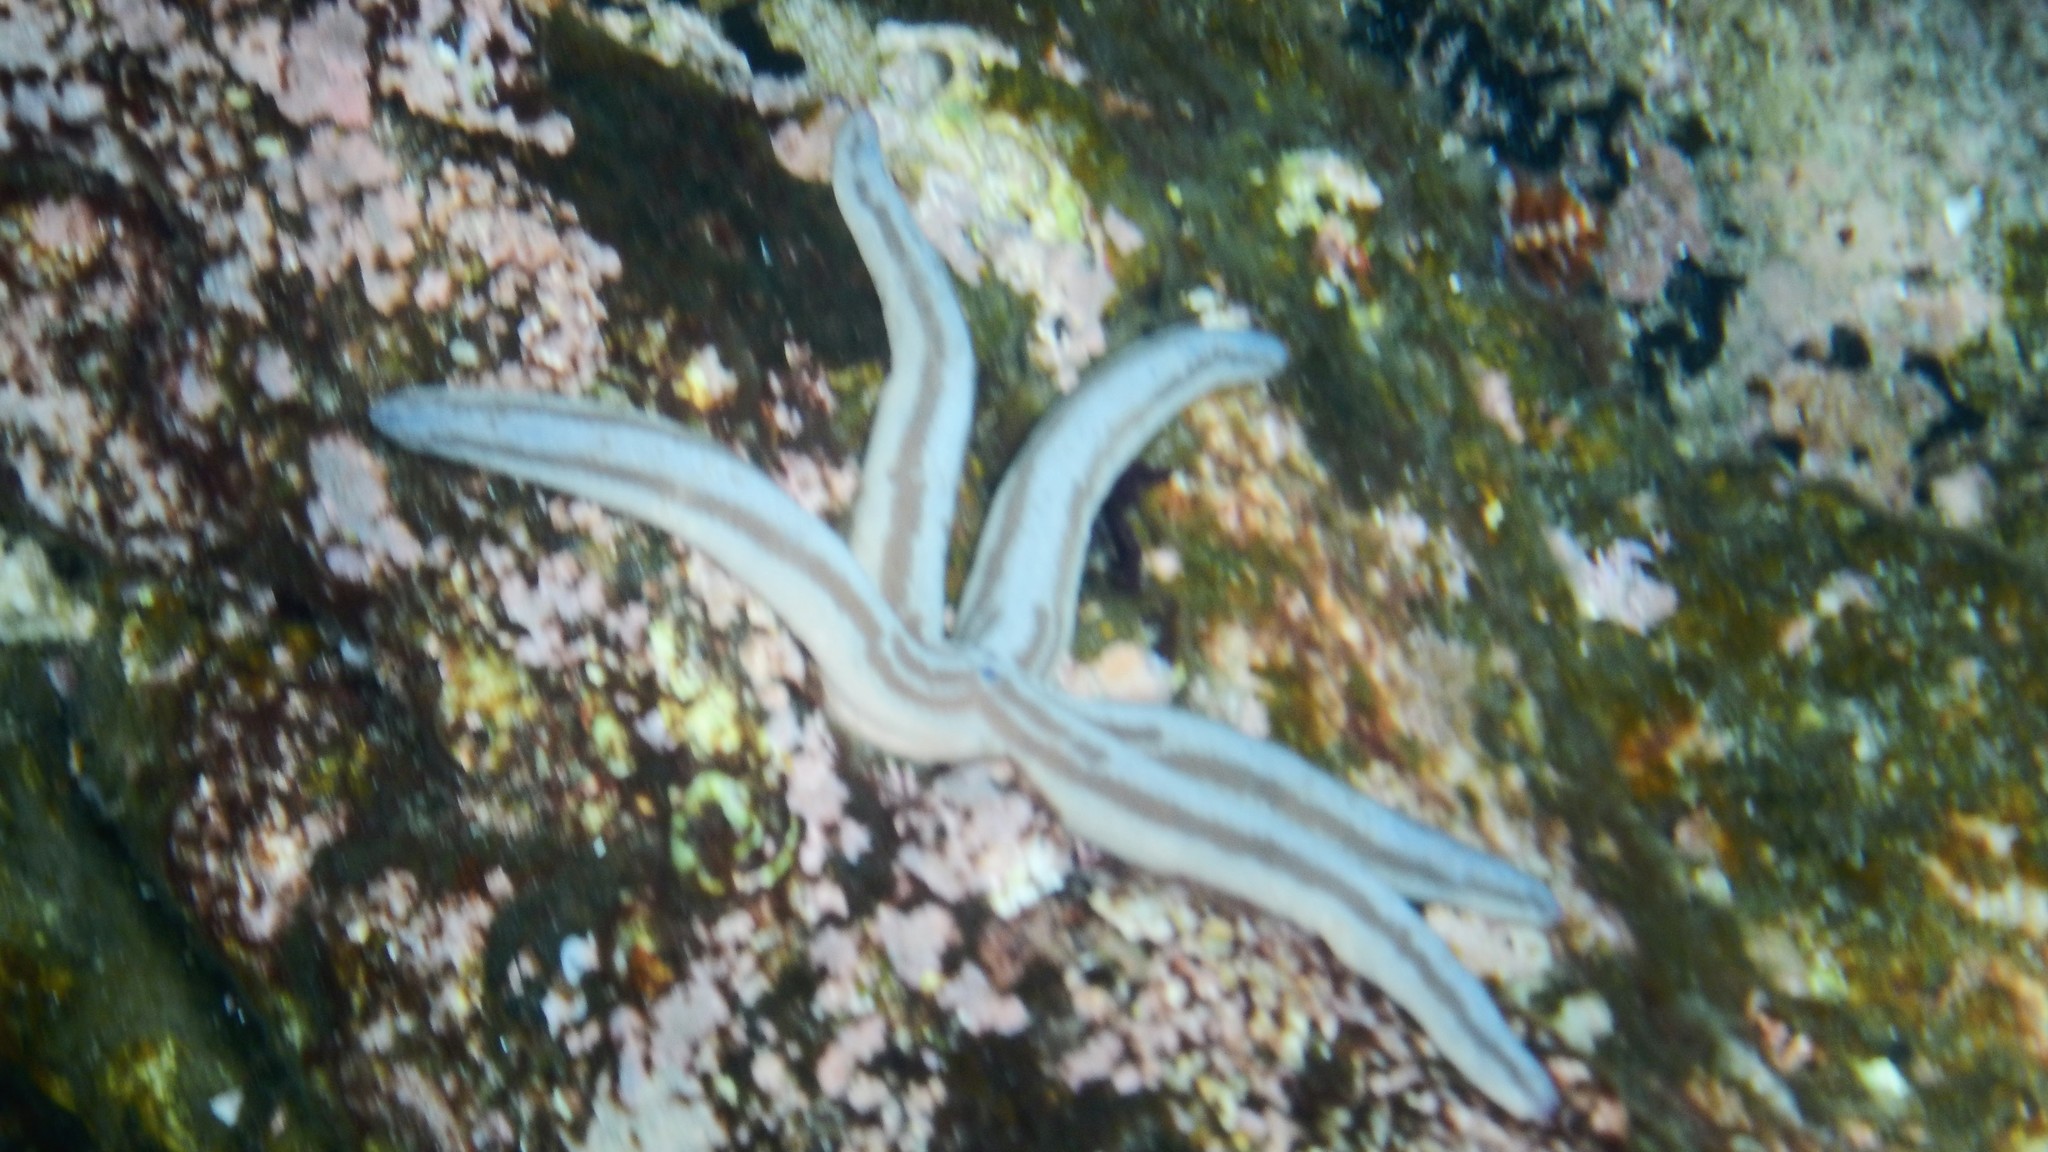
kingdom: Animalia
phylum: Echinodermata
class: Asteroidea
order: Valvatida
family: Ophidiasteridae
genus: Phataria
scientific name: Phataria unifascialis
